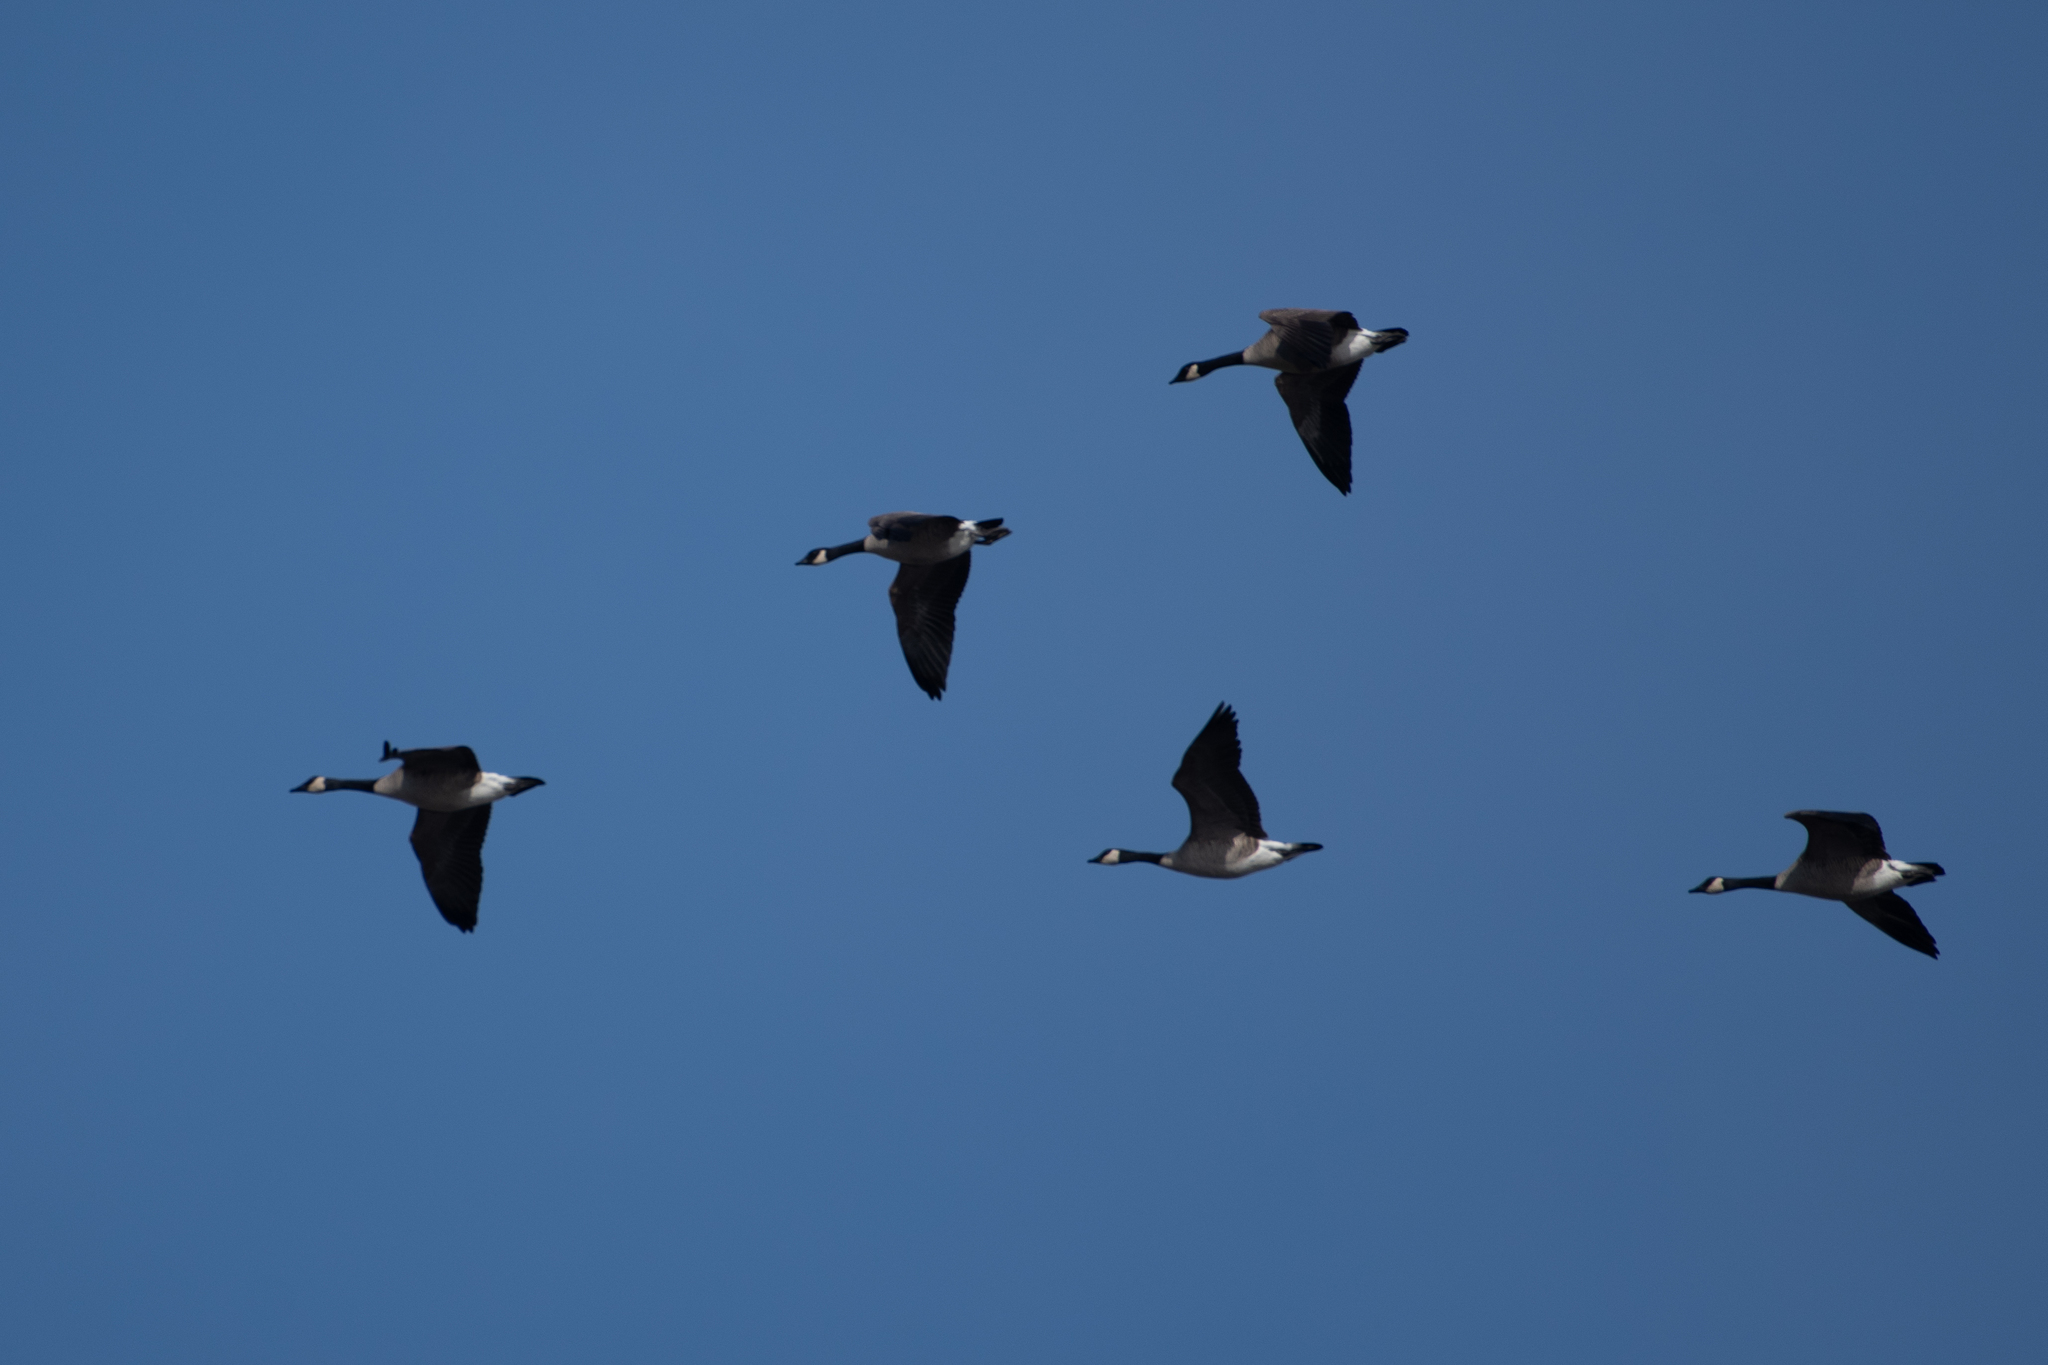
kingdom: Animalia
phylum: Chordata
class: Aves
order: Anseriformes
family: Anatidae
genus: Branta
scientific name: Branta canadensis
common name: Canada goose
